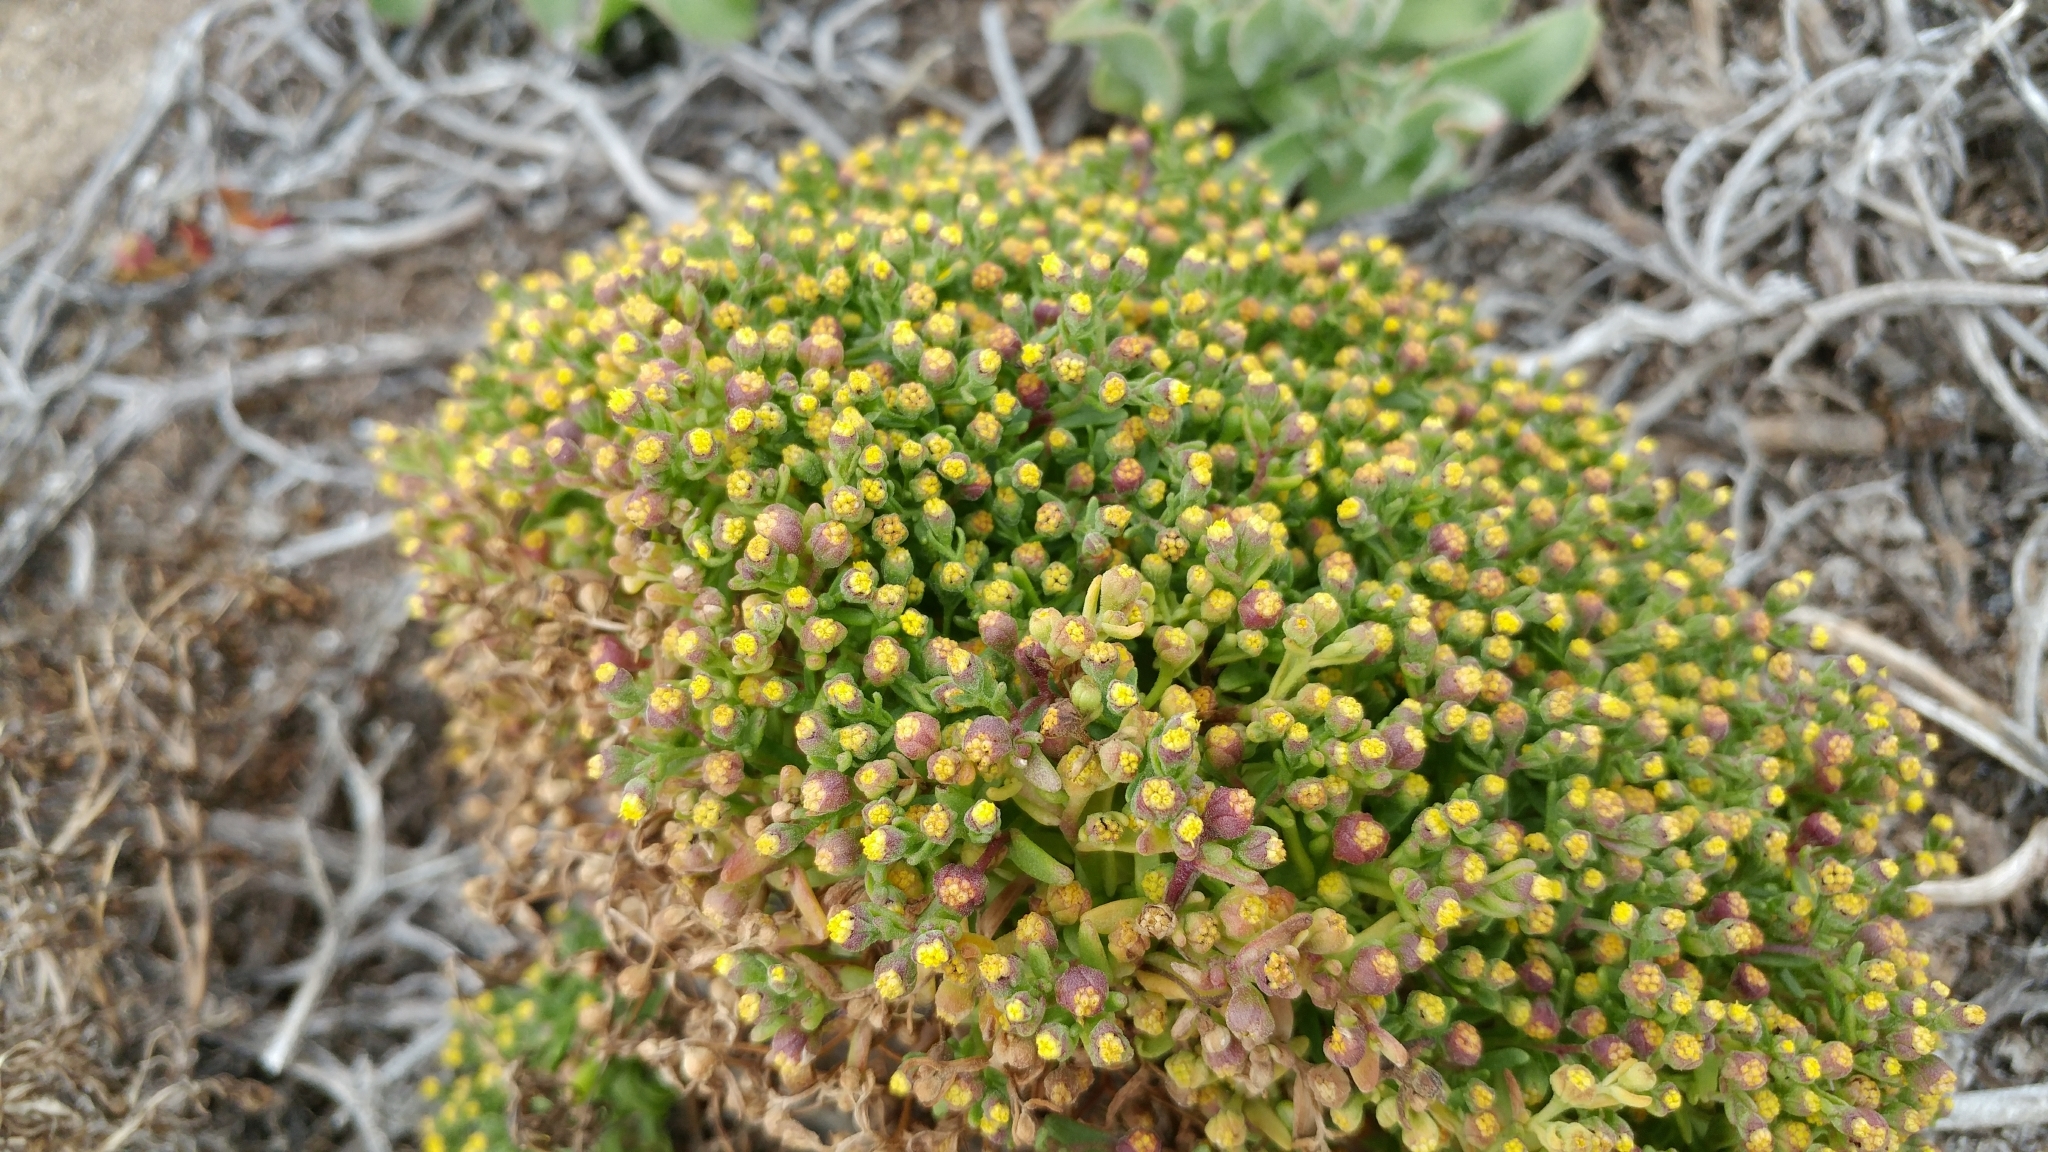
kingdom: Plantae
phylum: Tracheophyta
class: Magnoliopsida
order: Asterales
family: Asteraceae
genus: Amblyopappus
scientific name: Amblyopappus pusillus
